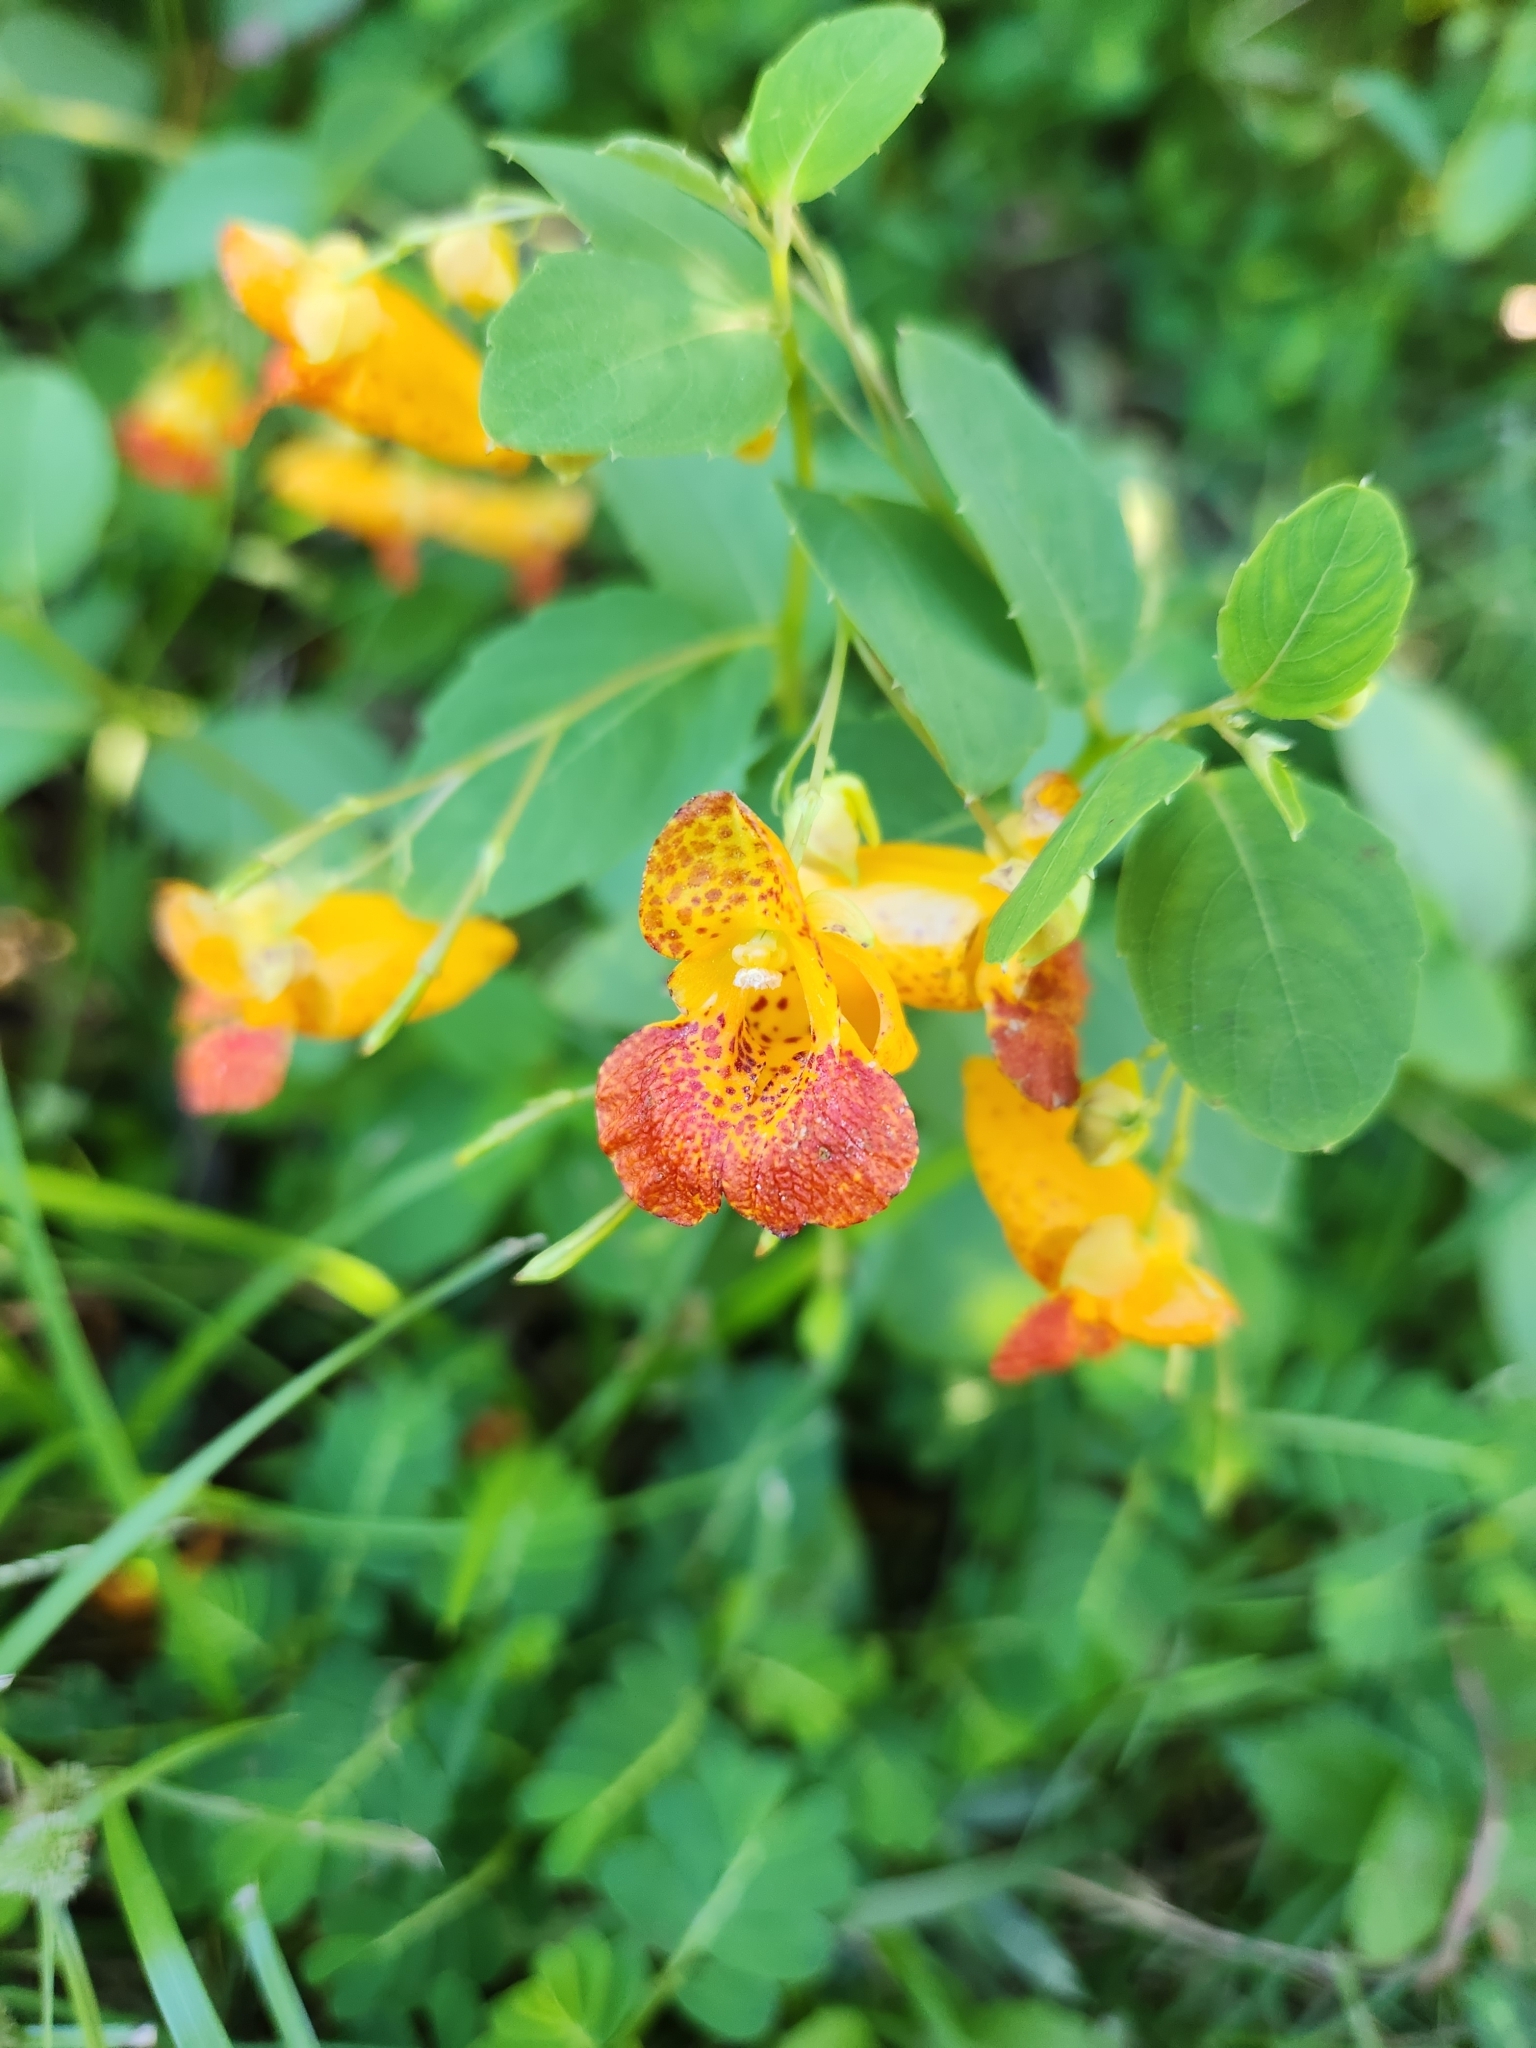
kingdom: Plantae
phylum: Tracheophyta
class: Magnoliopsida
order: Ericales
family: Balsaminaceae
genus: Impatiens
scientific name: Impatiens capensis
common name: Orange balsam
